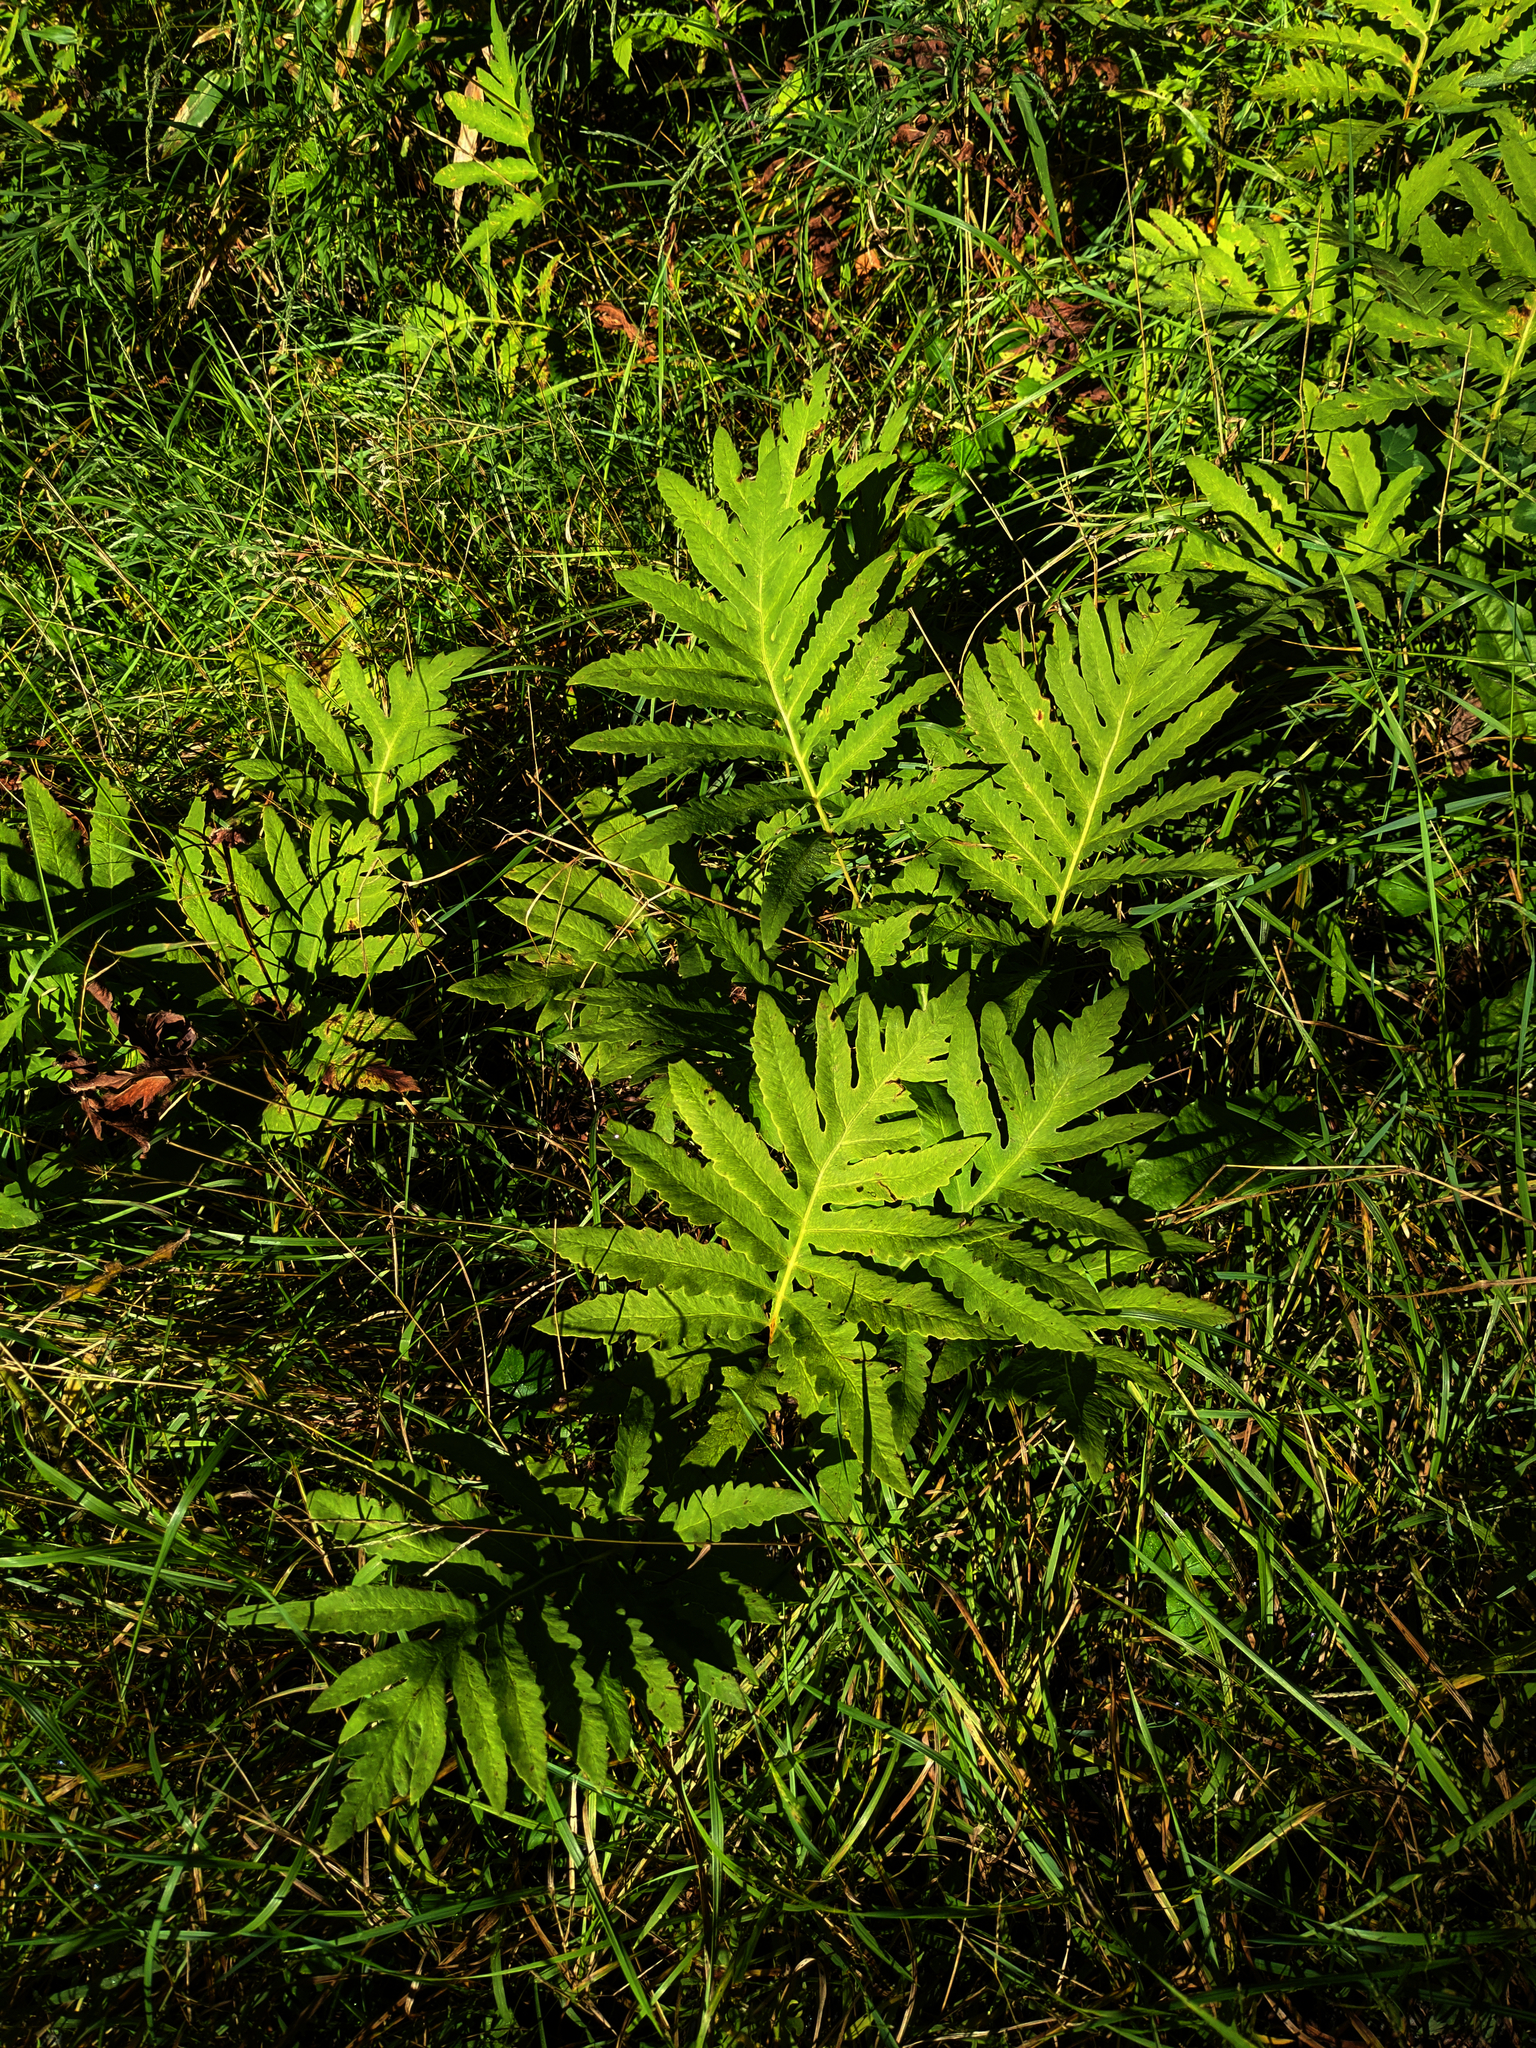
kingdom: Plantae
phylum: Tracheophyta
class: Polypodiopsida
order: Polypodiales
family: Onocleaceae
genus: Onoclea
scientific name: Onoclea sensibilis
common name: Sensitive fern
